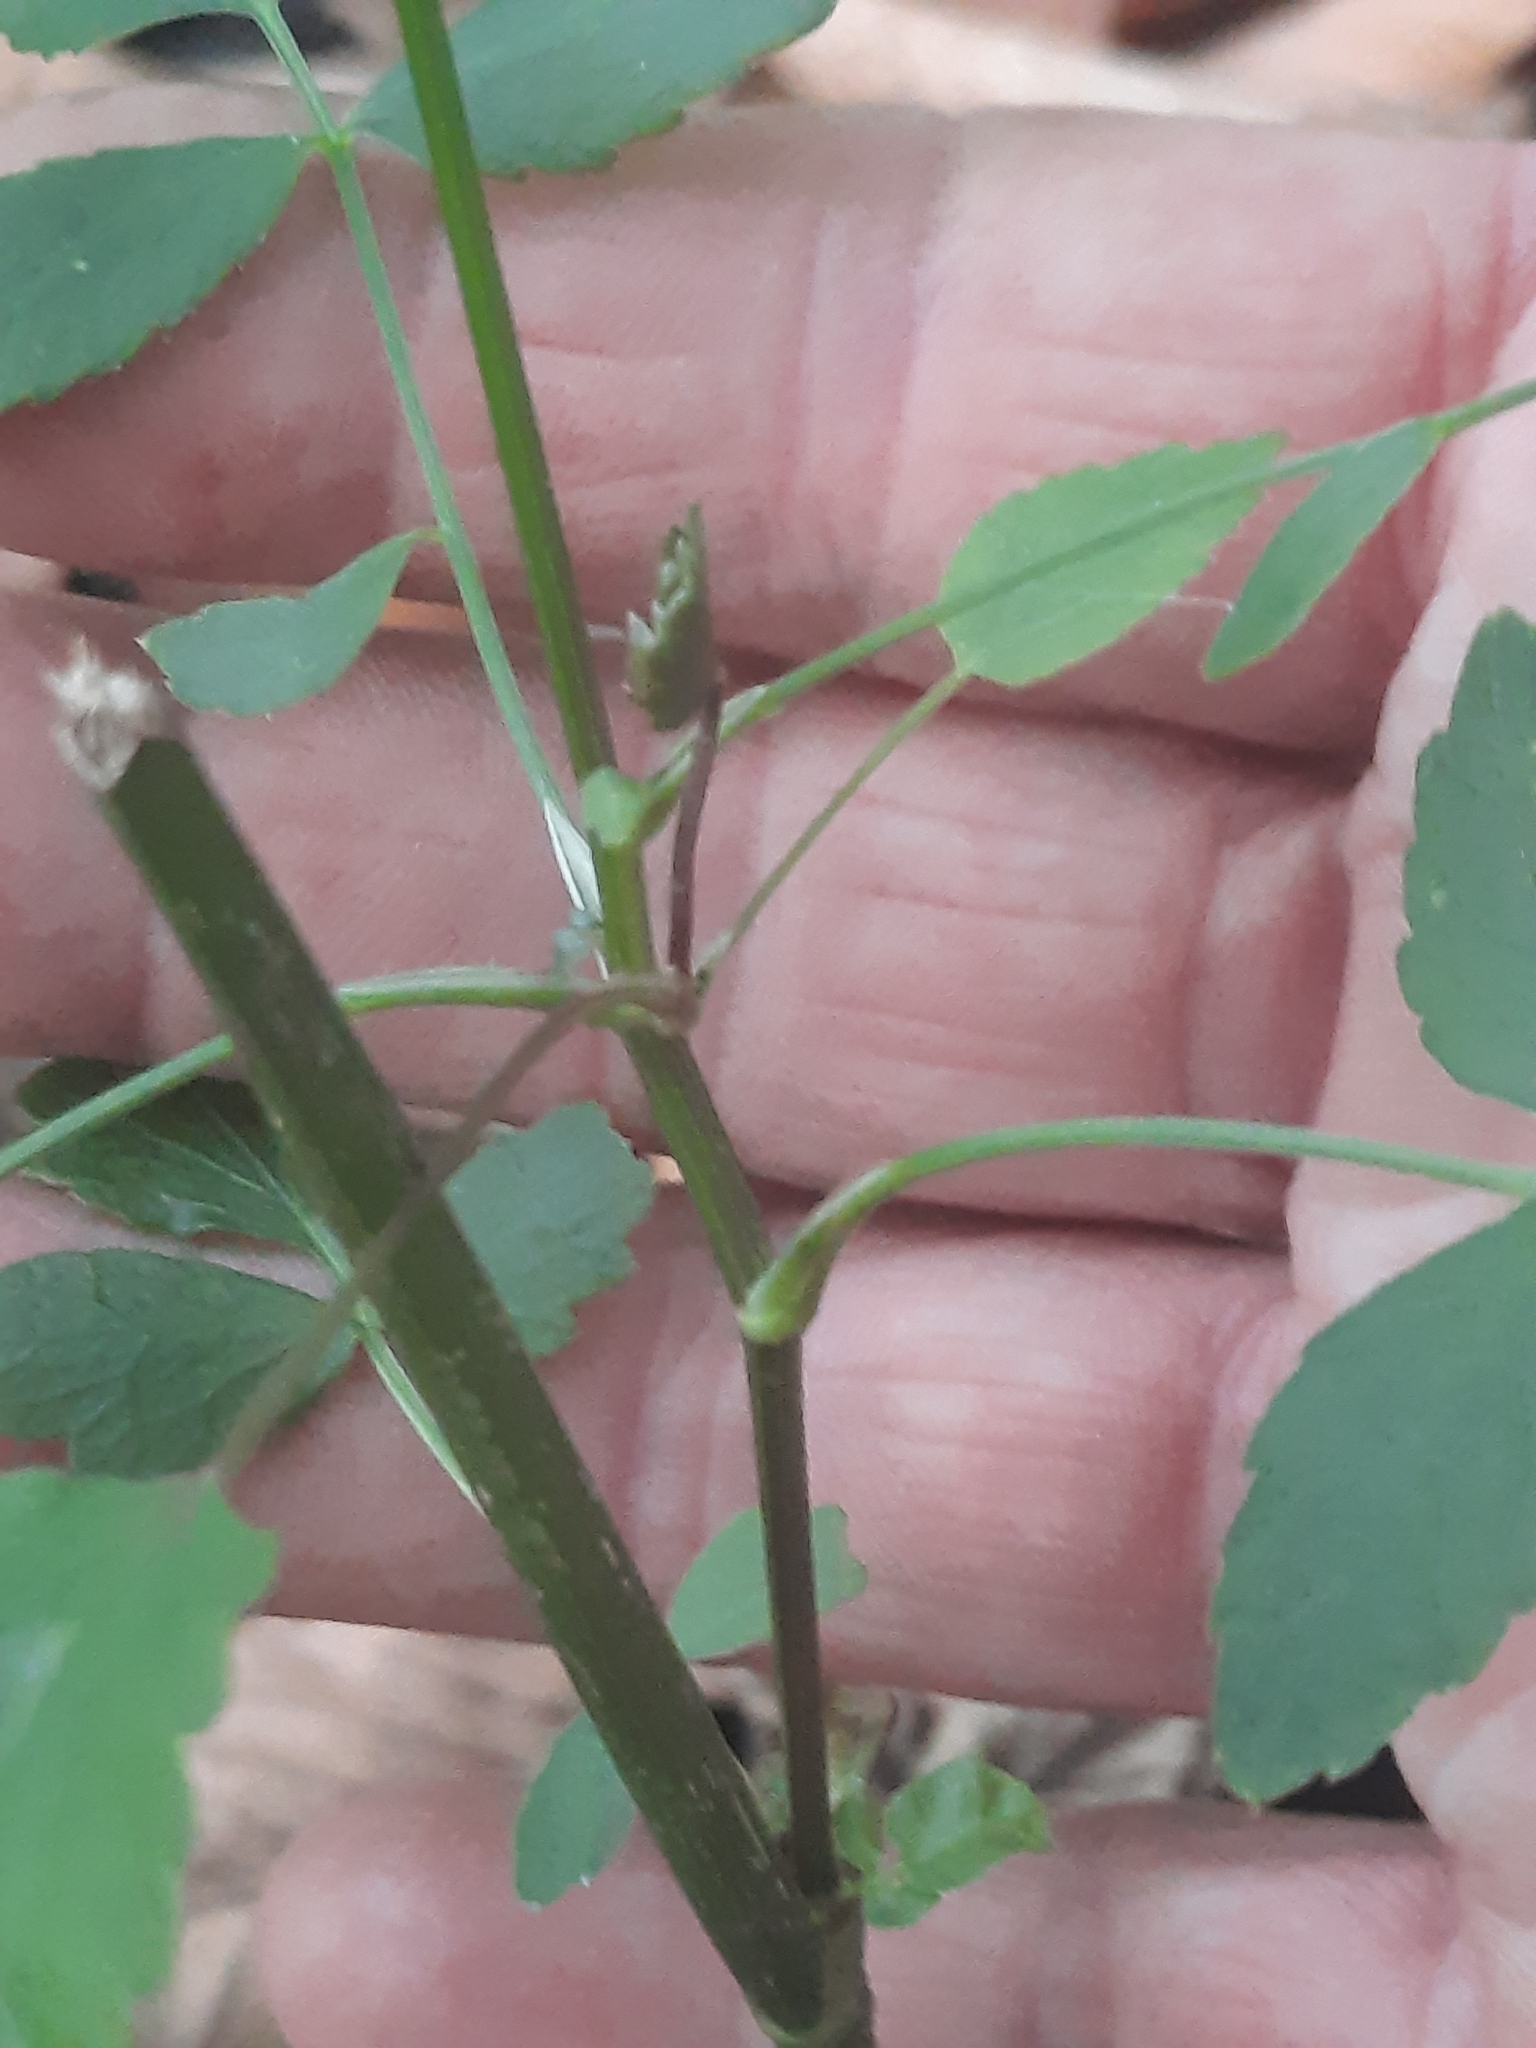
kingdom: Plantae
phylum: Tracheophyta
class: Magnoliopsida
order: Apiales
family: Apiaceae
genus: Cicuta
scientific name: Cicuta maculata
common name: Spotted cowbane
